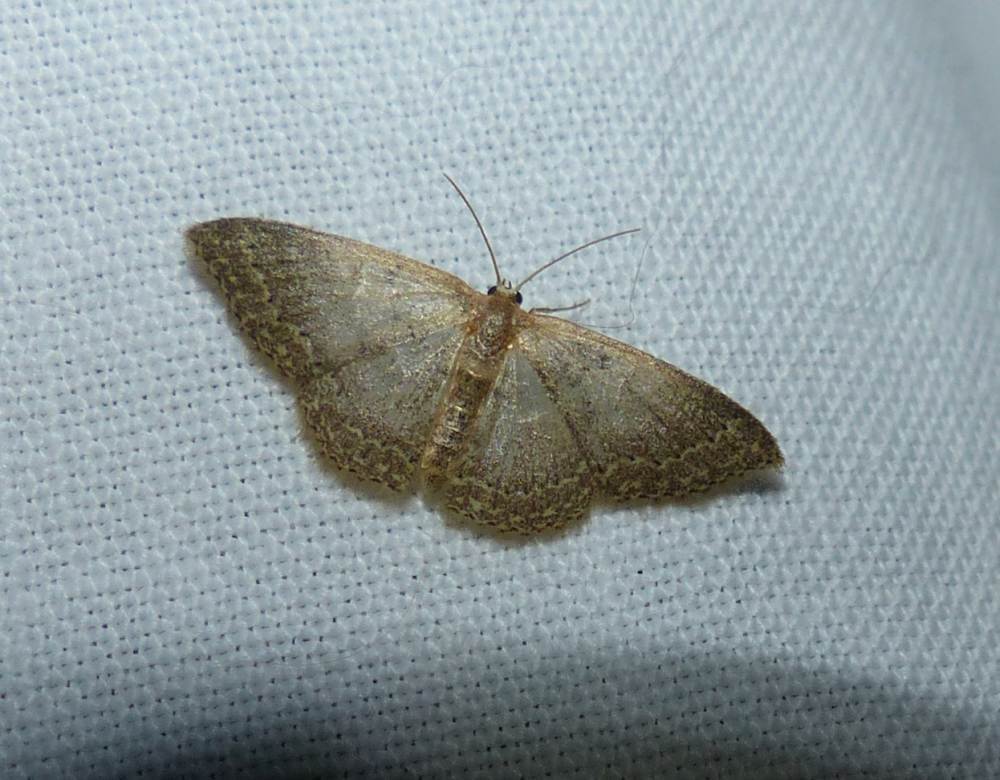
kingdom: Animalia
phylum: Arthropoda
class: Insecta
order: Lepidoptera
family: Geometridae
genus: Pleuroprucha
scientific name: Pleuroprucha insulsaria
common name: Common tan wave
